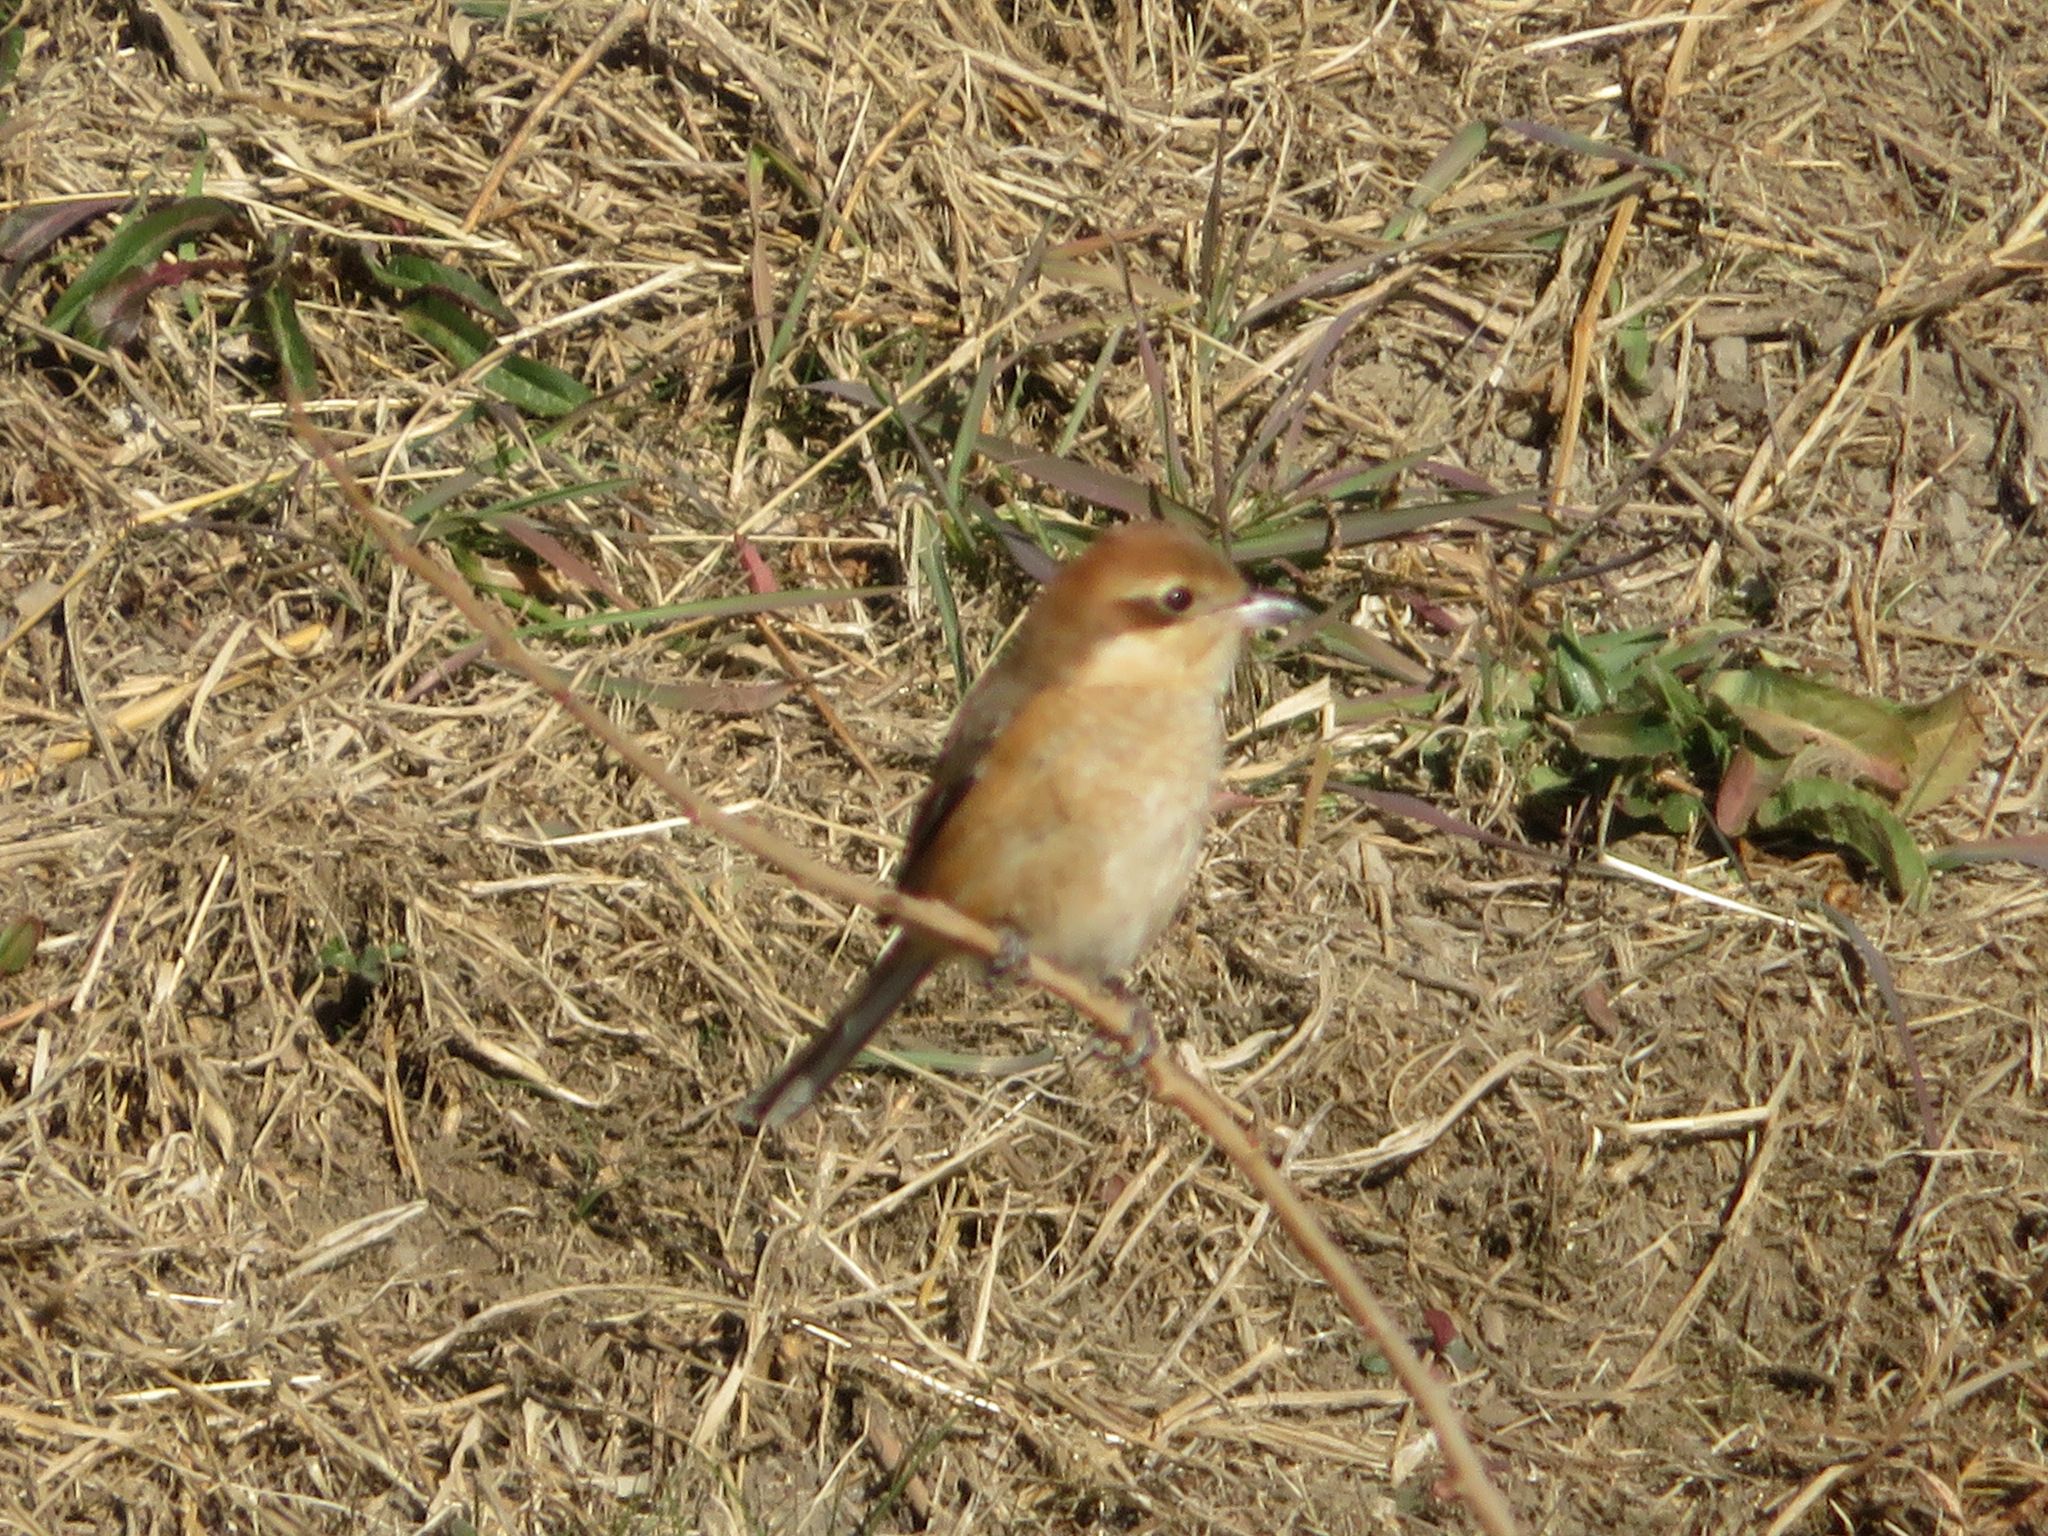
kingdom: Animalia
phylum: Chordata
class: Aves
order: Passeriformes
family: Laniidae
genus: Lanius
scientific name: Lanius bucephalus
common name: Bull-headed shrike
